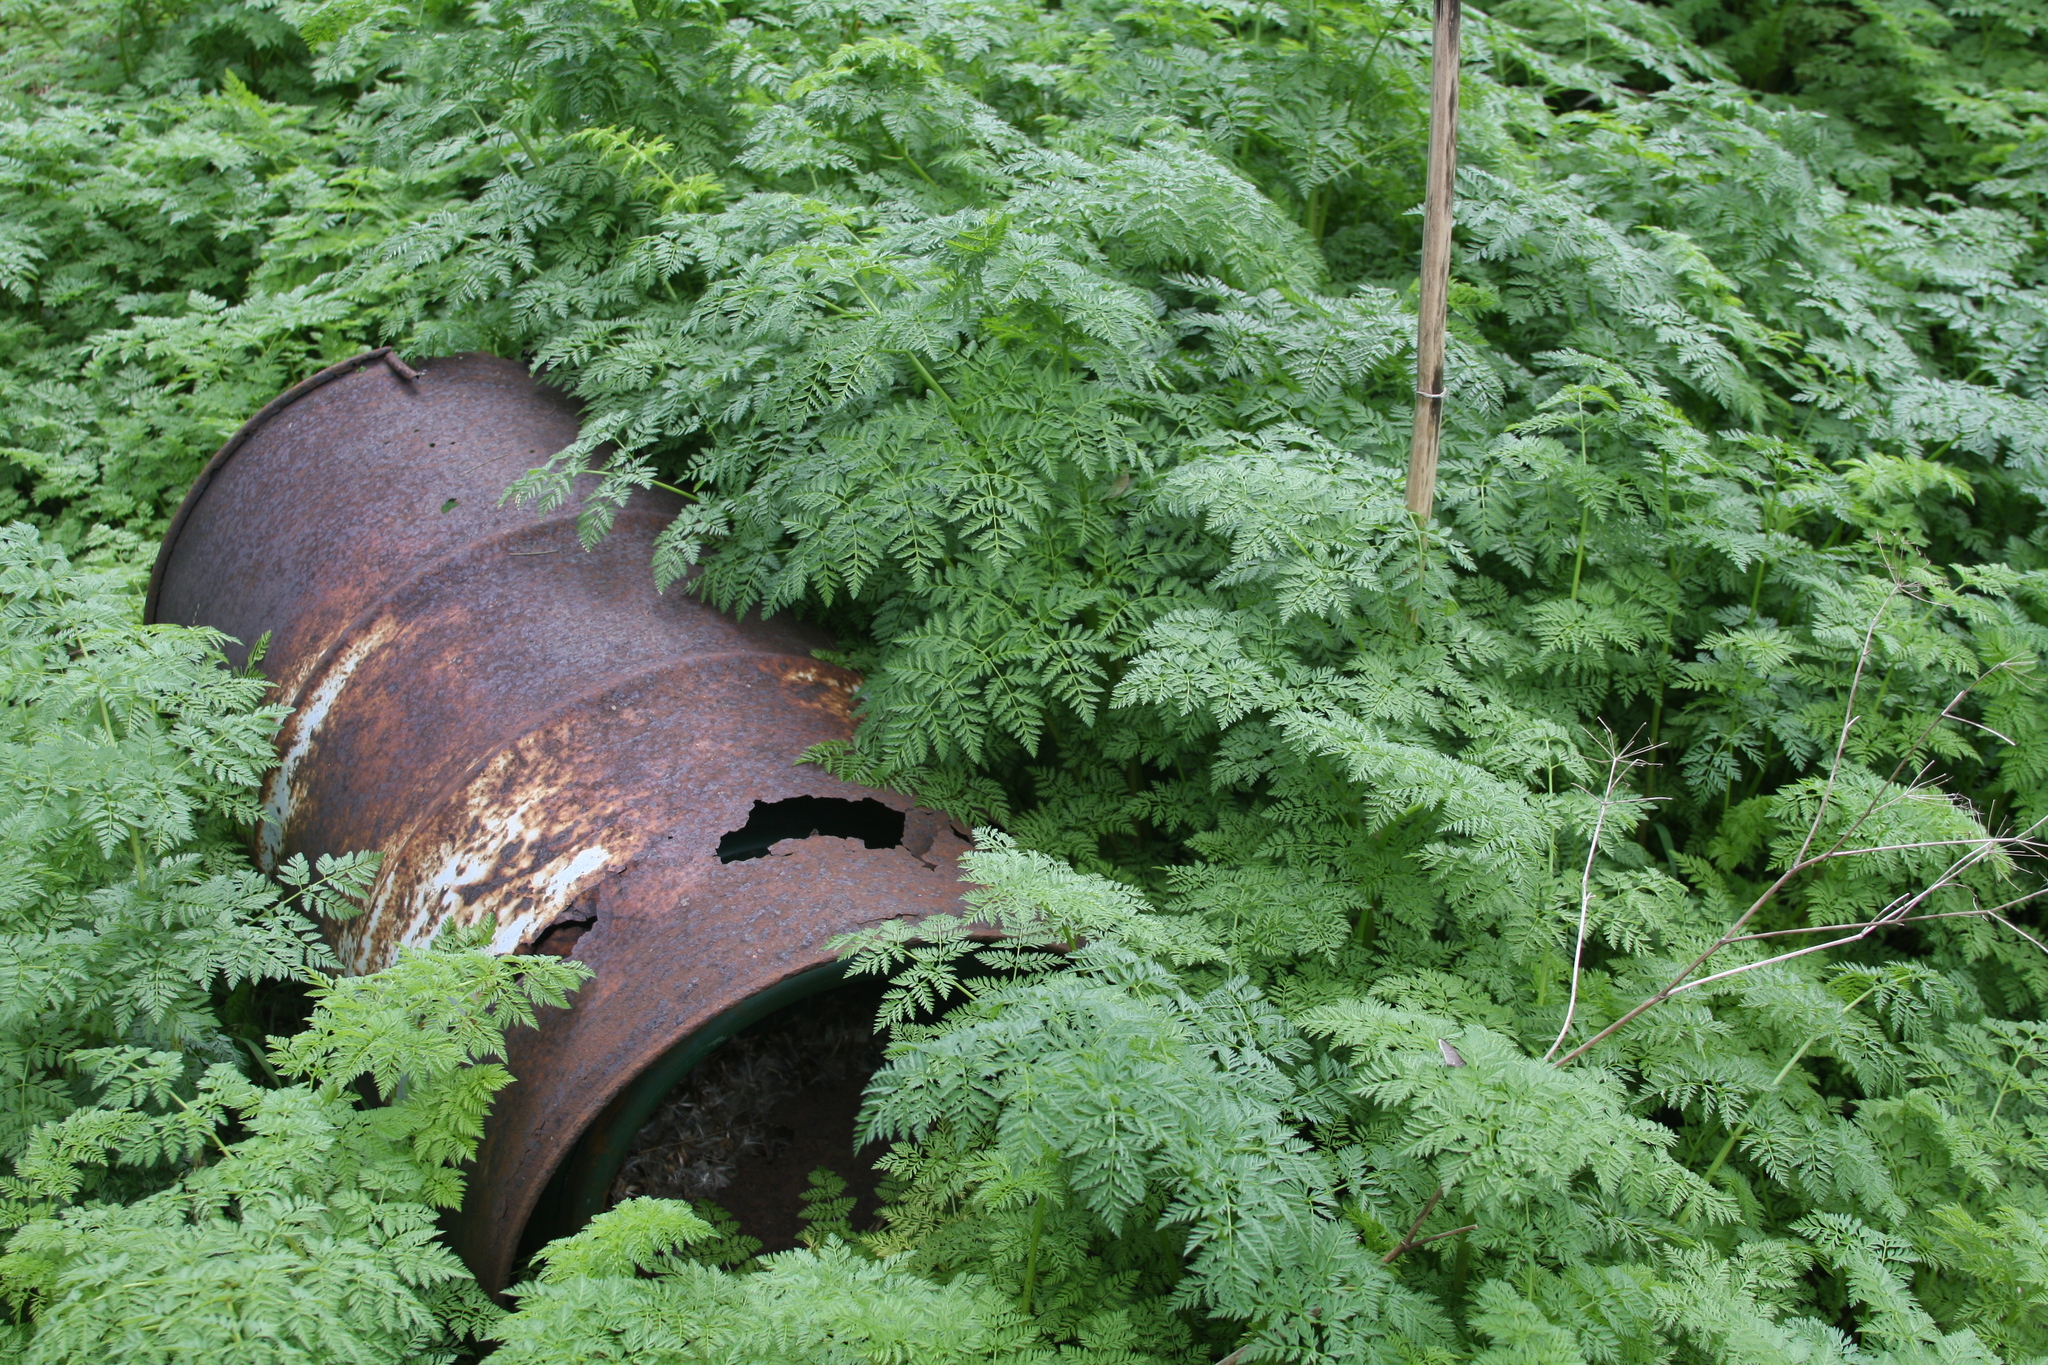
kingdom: Plantae
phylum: Tracheophyta
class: Magnoliopsida
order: Apiales
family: Apiaceae
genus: Conium
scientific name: Conium maculatum
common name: Hemlock
